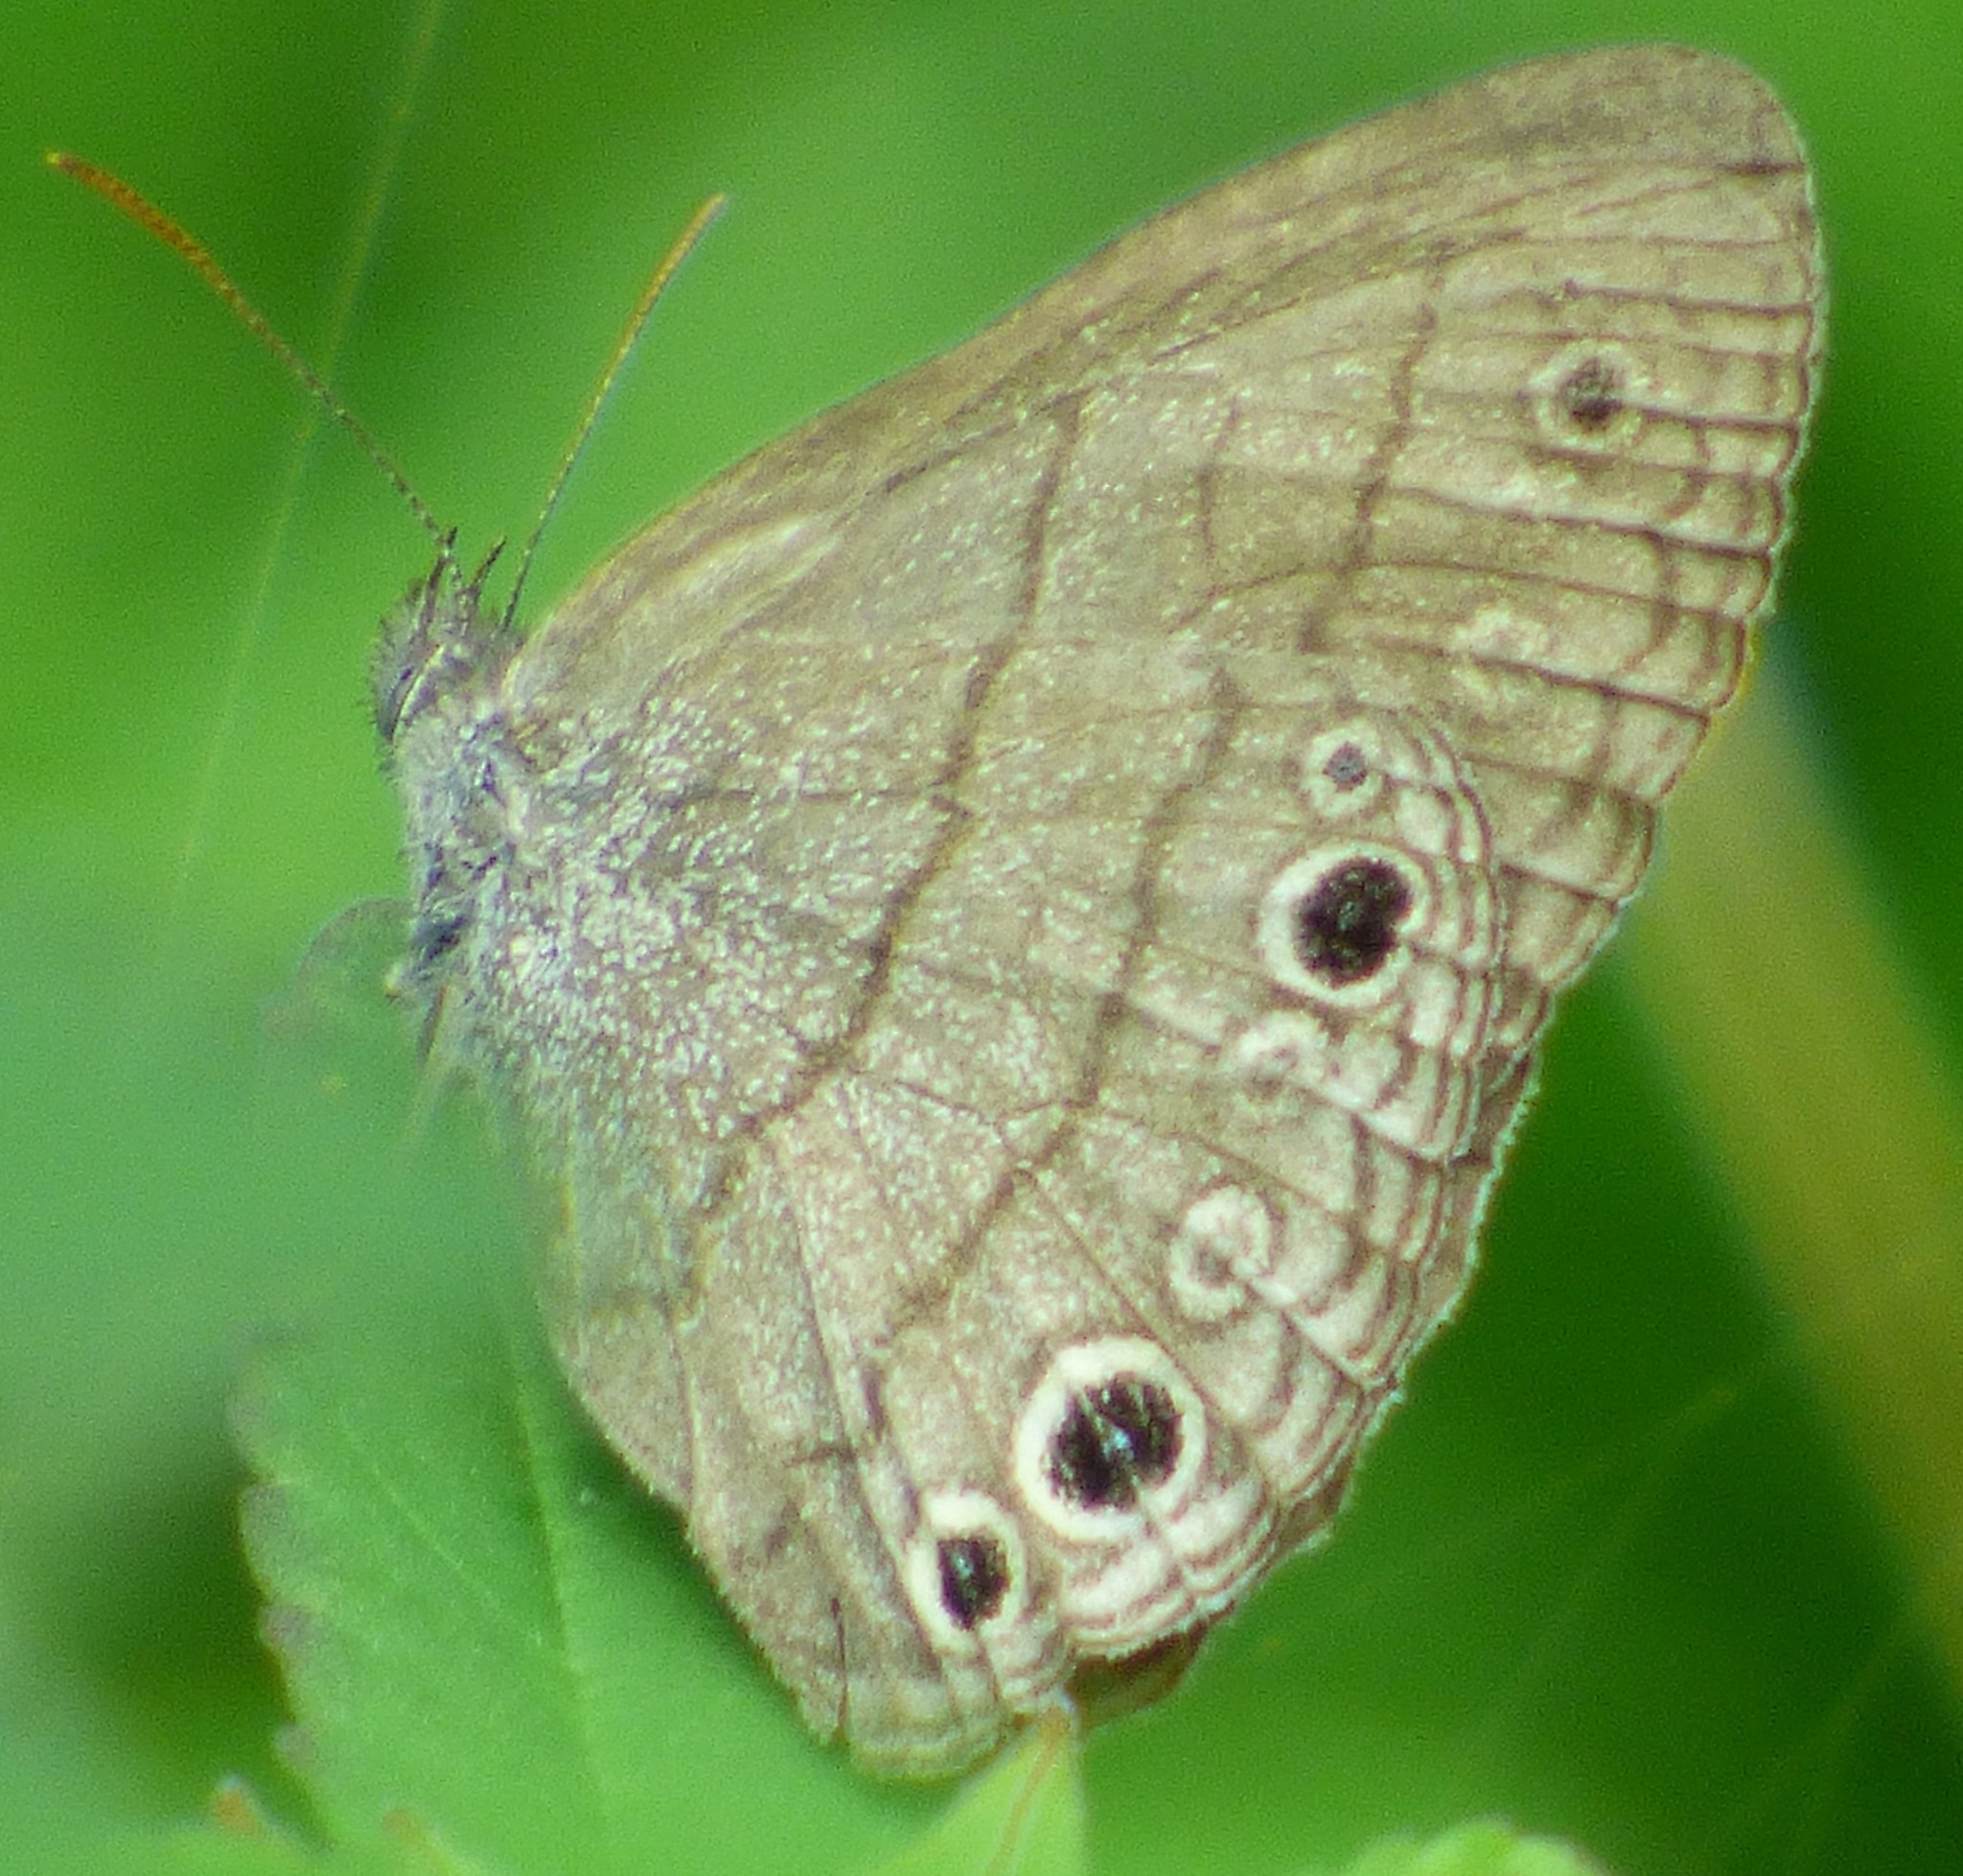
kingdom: Animalia
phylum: Arthropoda
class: Insecta
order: Lepidoptera
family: Nymphalidae
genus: Hermeuptychia
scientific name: Hermeuptychia hermes
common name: Hermes satyr
